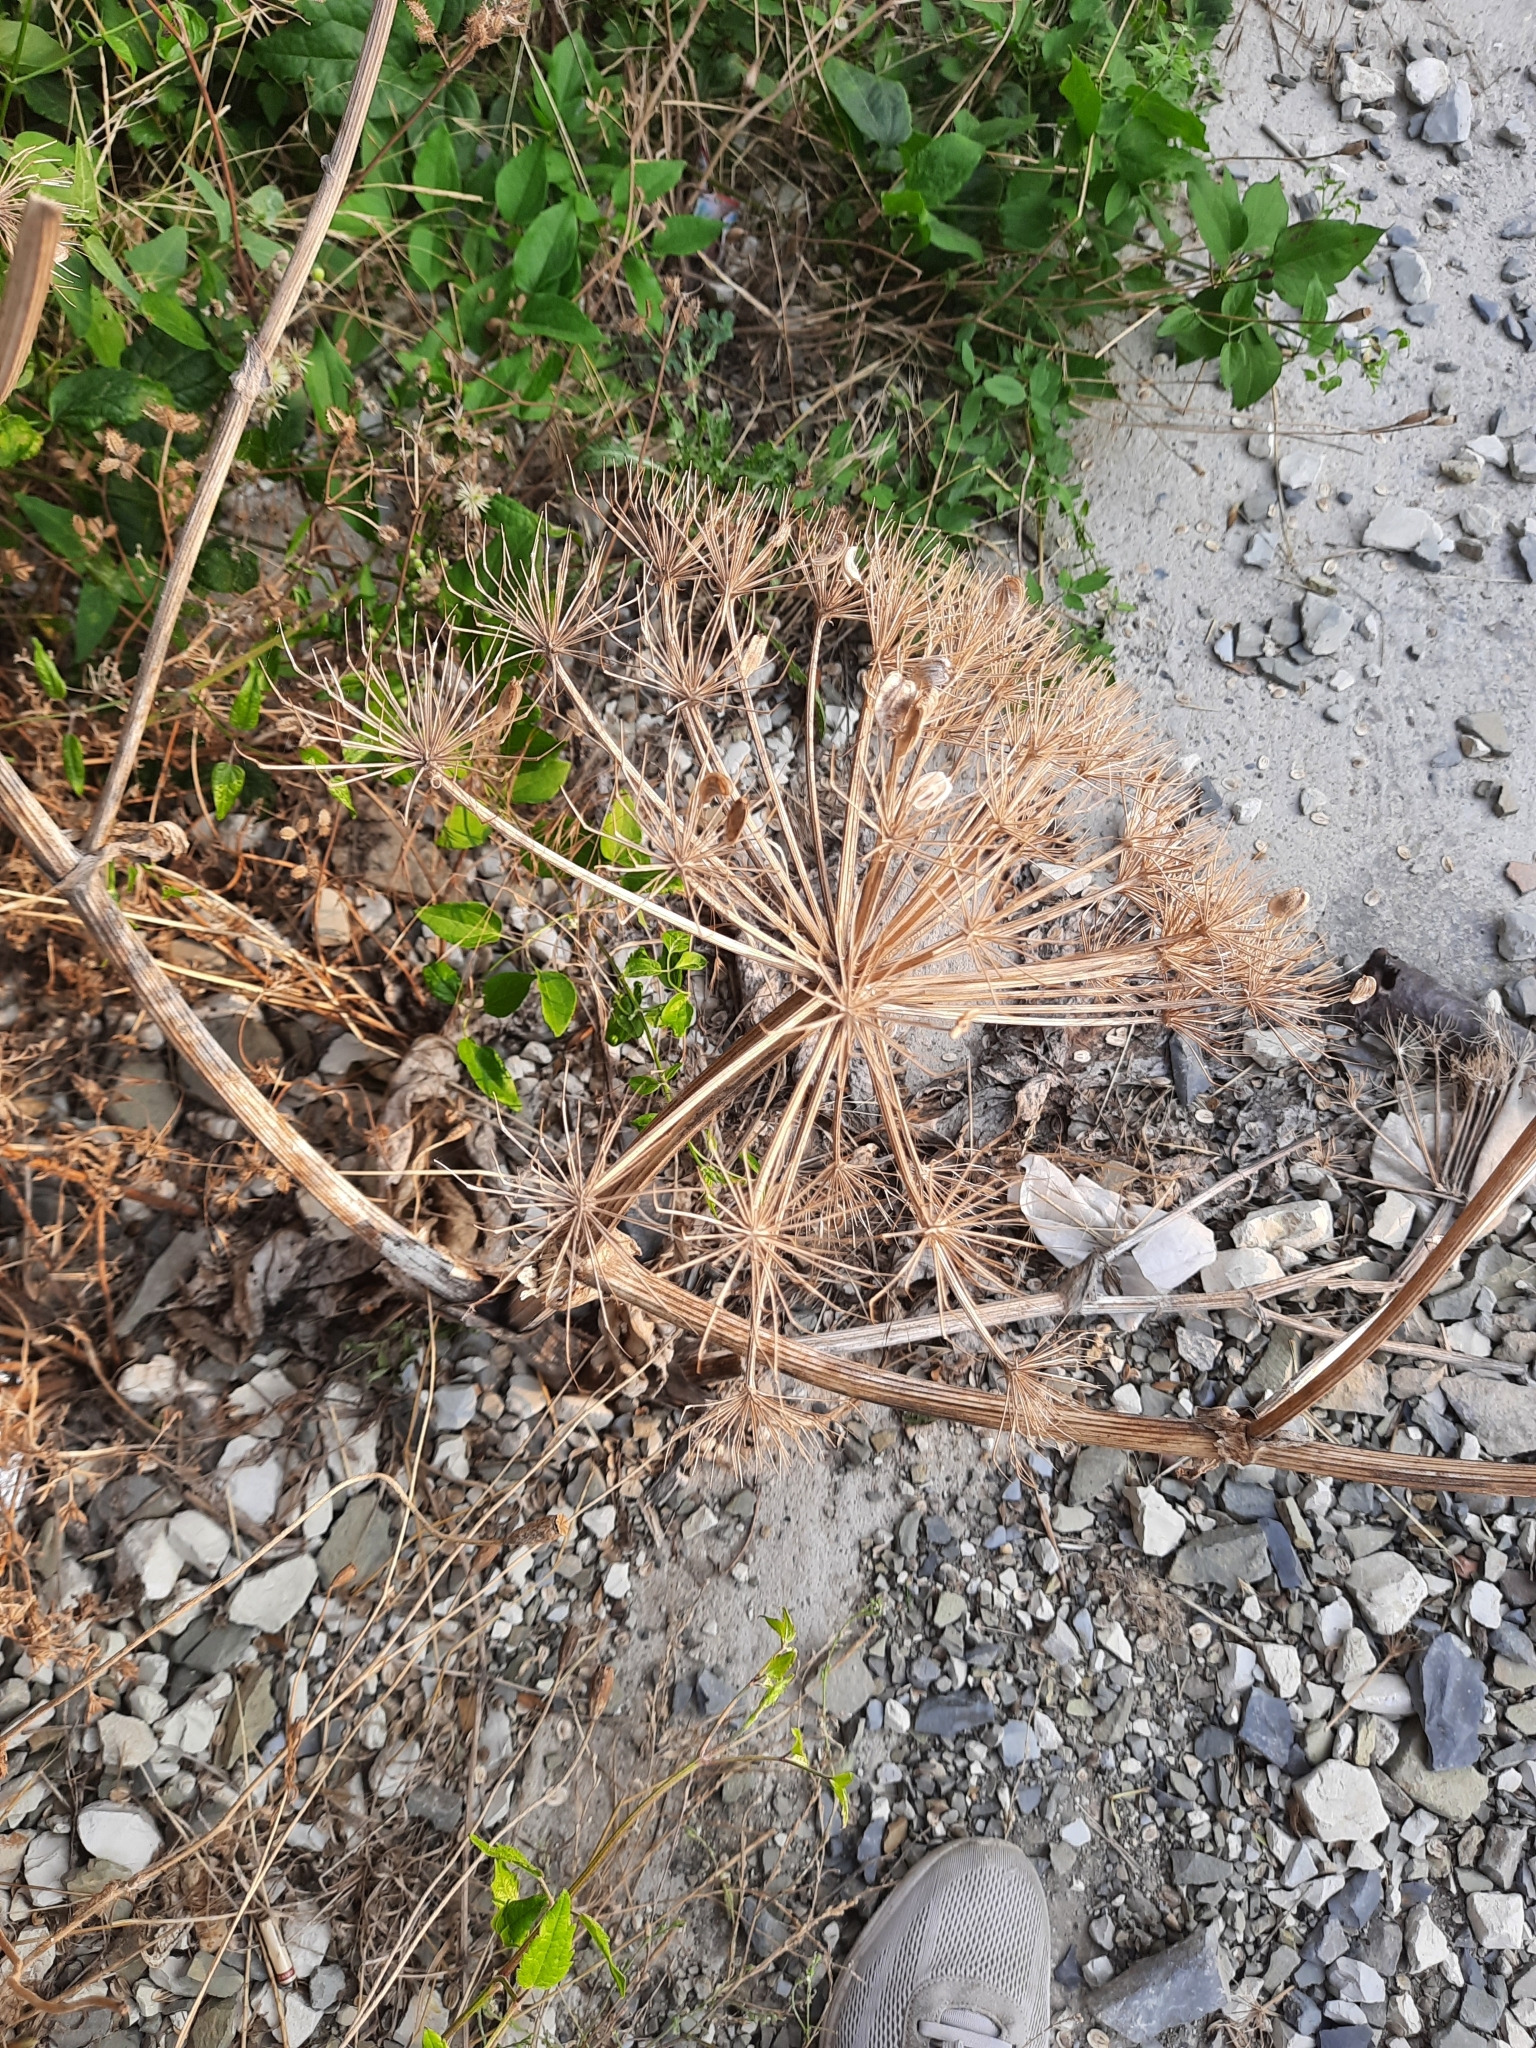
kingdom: Plantae
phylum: Tracheophyta
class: Magnoliopsida
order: Apiales
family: Apiaceae
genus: Heracleum
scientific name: Heracleum stevenii
